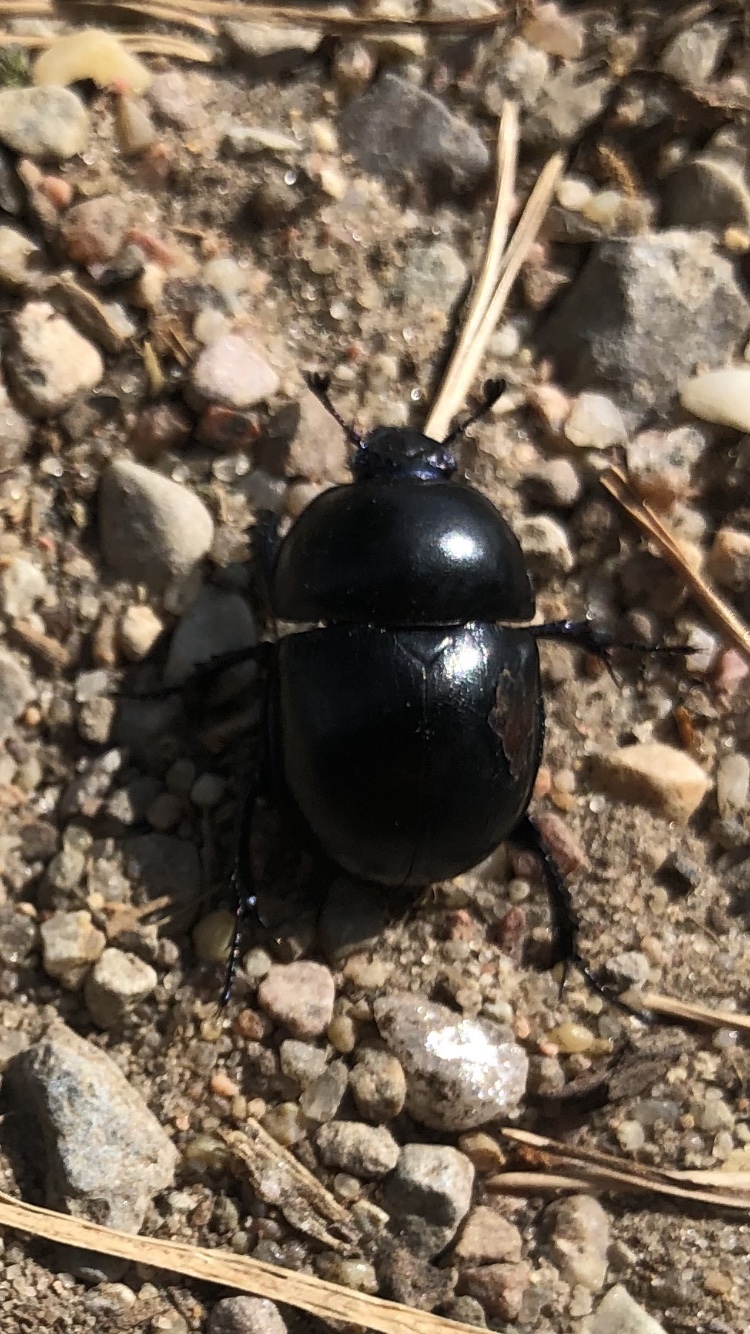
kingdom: Animalia
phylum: Arthropoda
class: Insecta
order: Coleoptera
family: Geotrupidae
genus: Trypocopris
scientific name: Trypocopris vernalis
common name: Spring dumbledor
